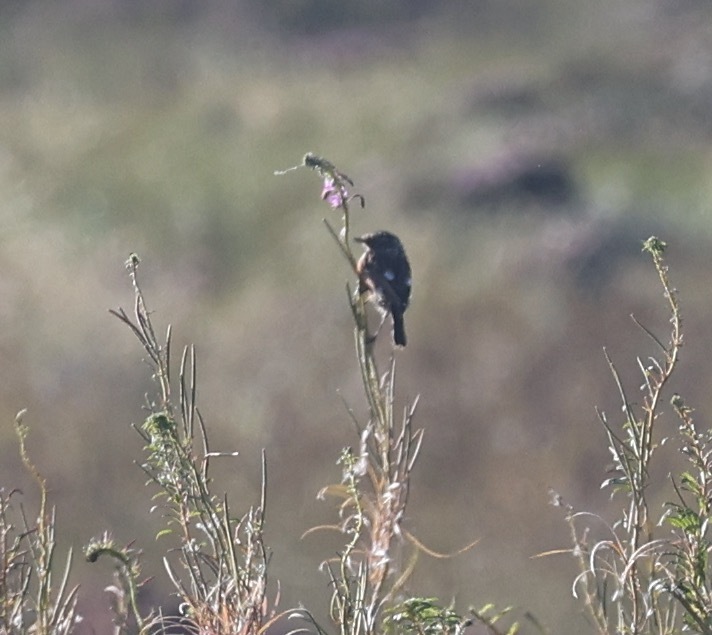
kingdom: Animalia
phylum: Chordata
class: Aves
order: Passeriformes
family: Muscicapidae
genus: Saxicola
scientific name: Saxicola rubicola
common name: European stonechat
